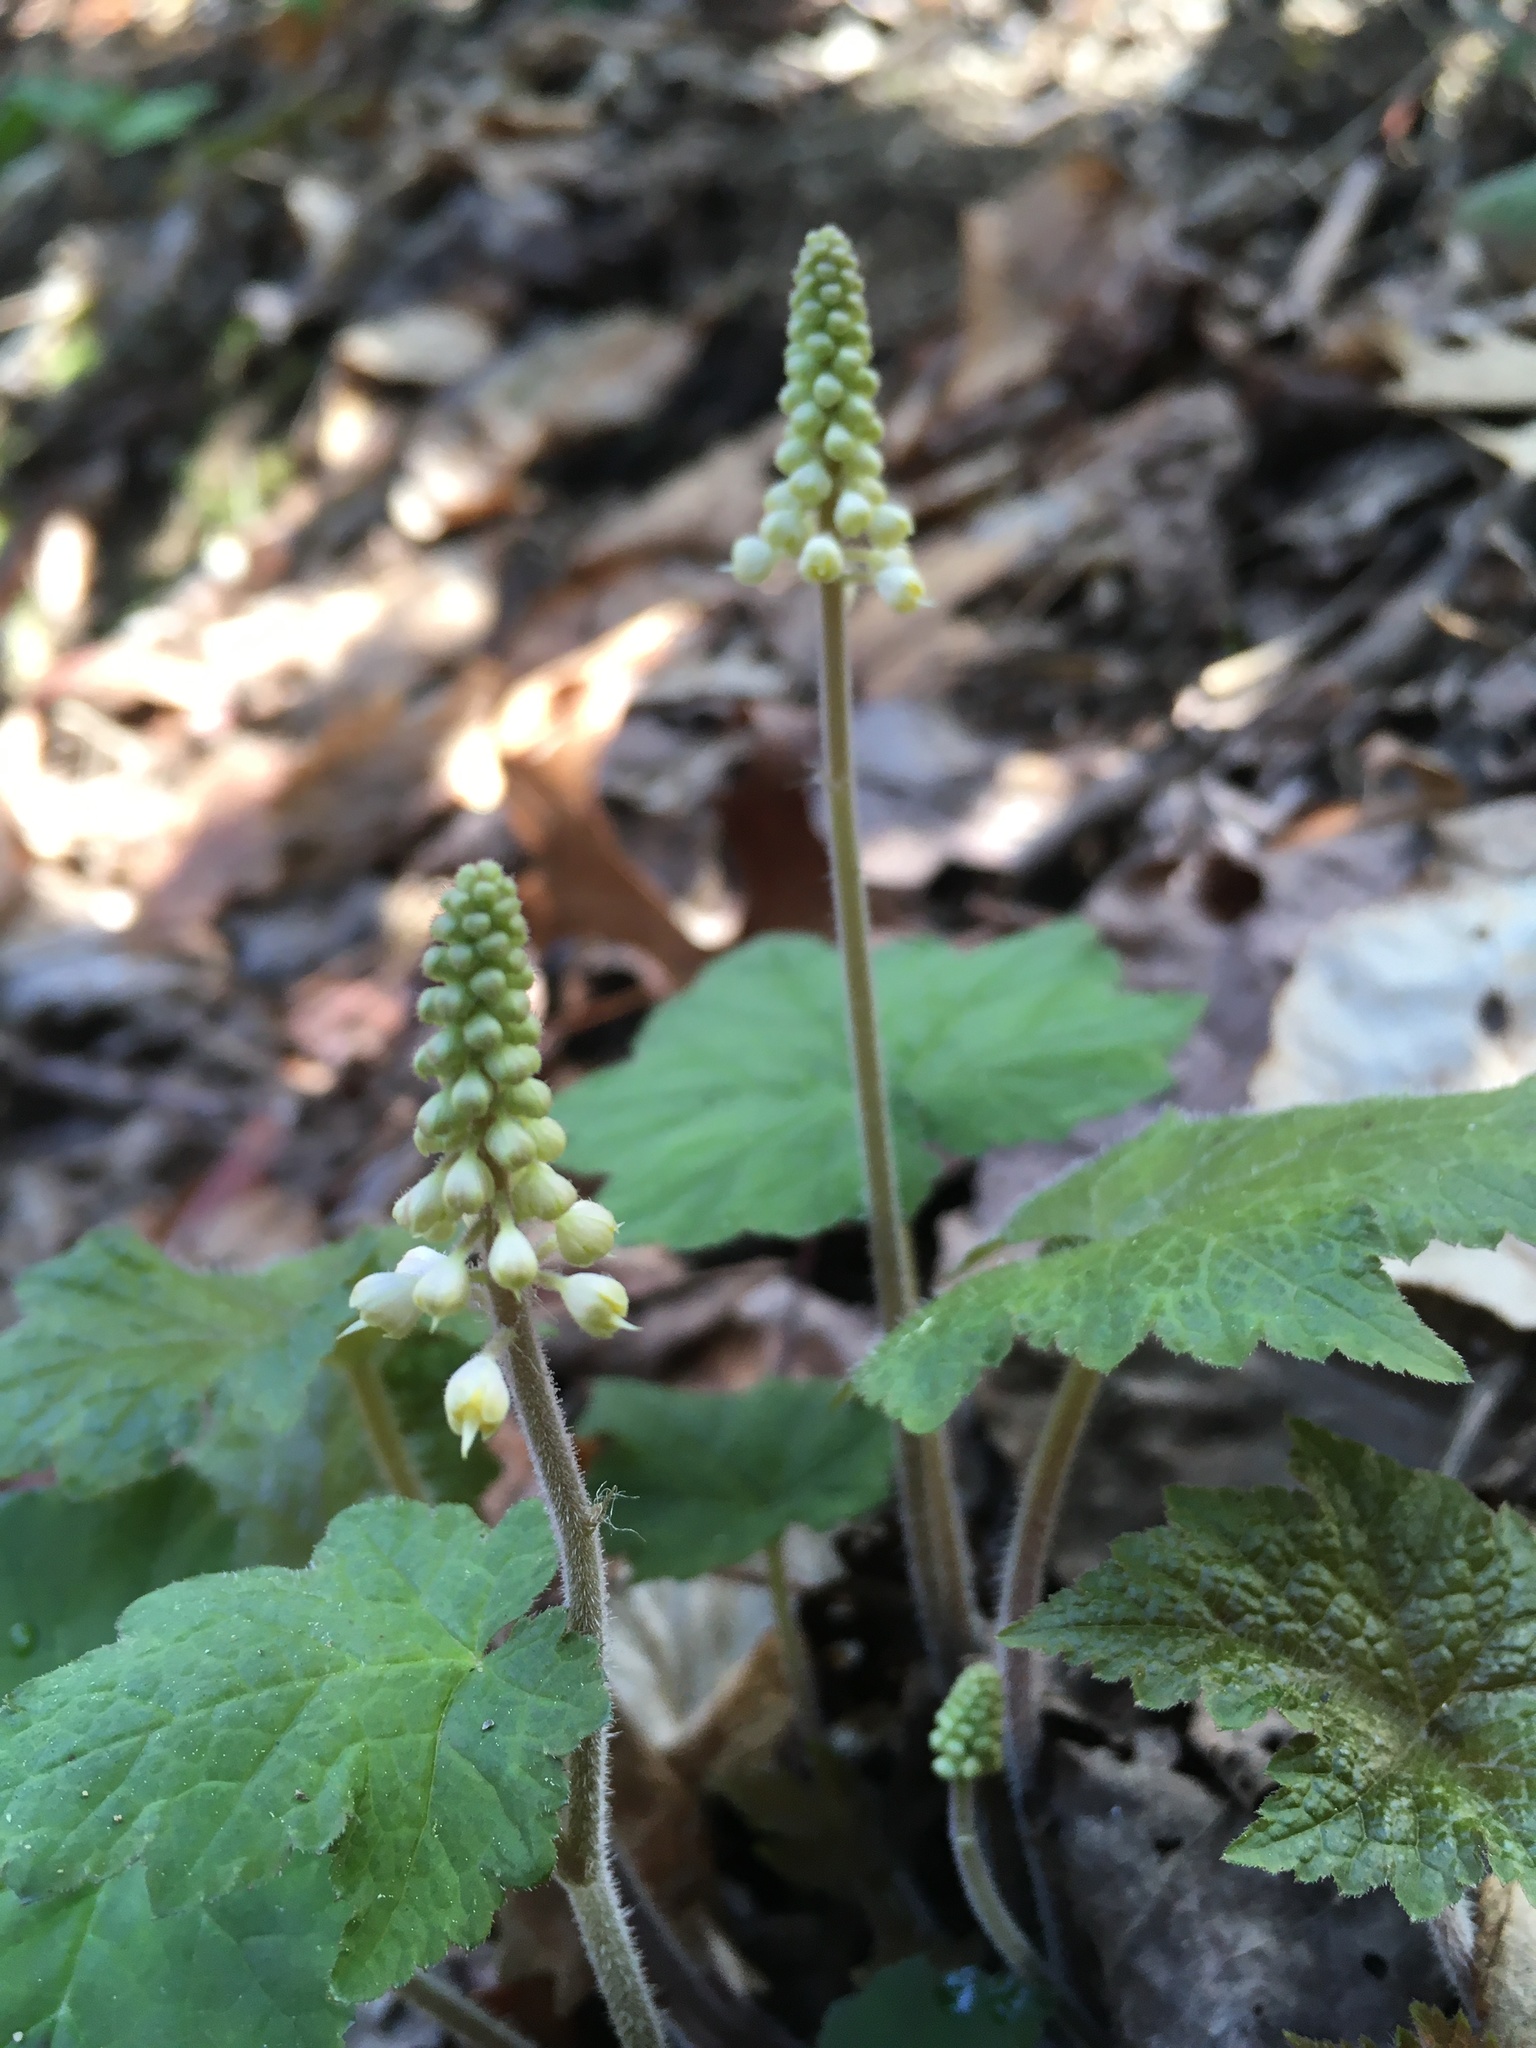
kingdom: Plantae
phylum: Tracheophyta
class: Magnoliopsida
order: Saxifragales
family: Saxifragaceae
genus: Tiarella
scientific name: Tiarella austrina
